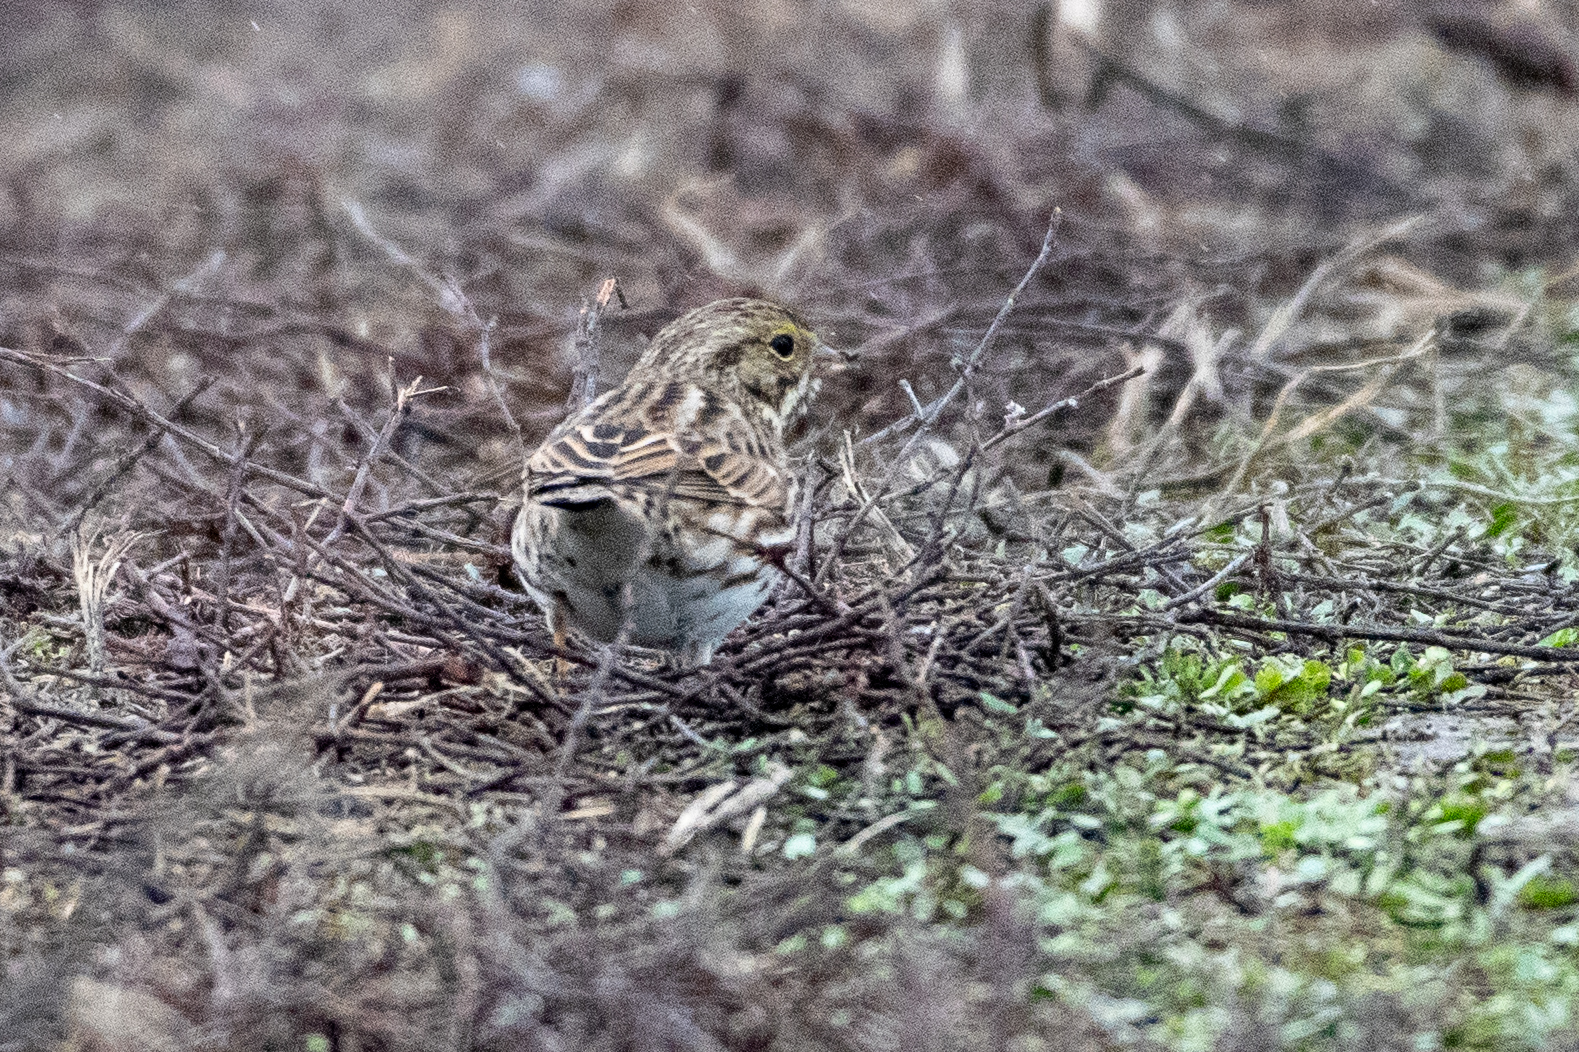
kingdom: Animalia
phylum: Chordata
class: Aves
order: Passeriformes
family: Passerellidae
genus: Passerculus
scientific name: Passerculus sandwichensis
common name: Savannah sparrow
